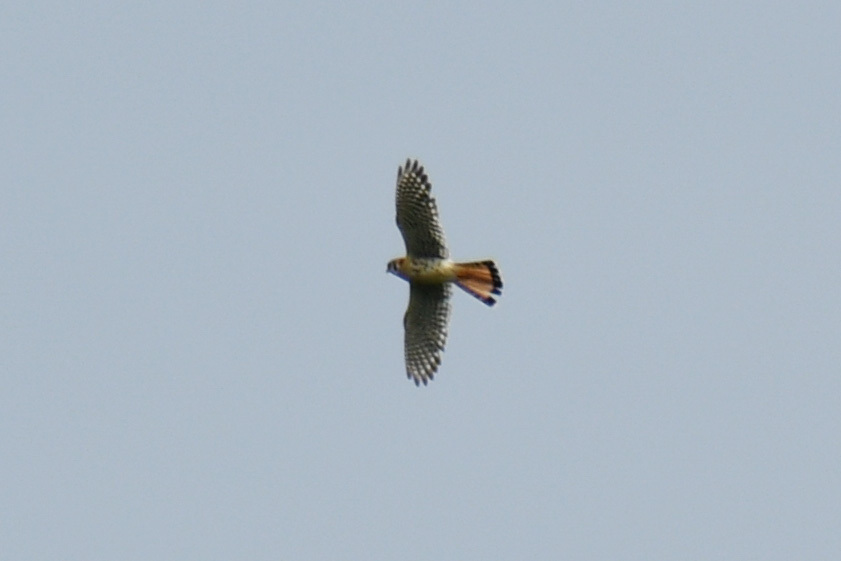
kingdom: Animalia
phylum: Chordata
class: Aves
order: Falconiformes
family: Falconidae
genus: Falco
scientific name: Falco sparverius
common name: American kestrel
